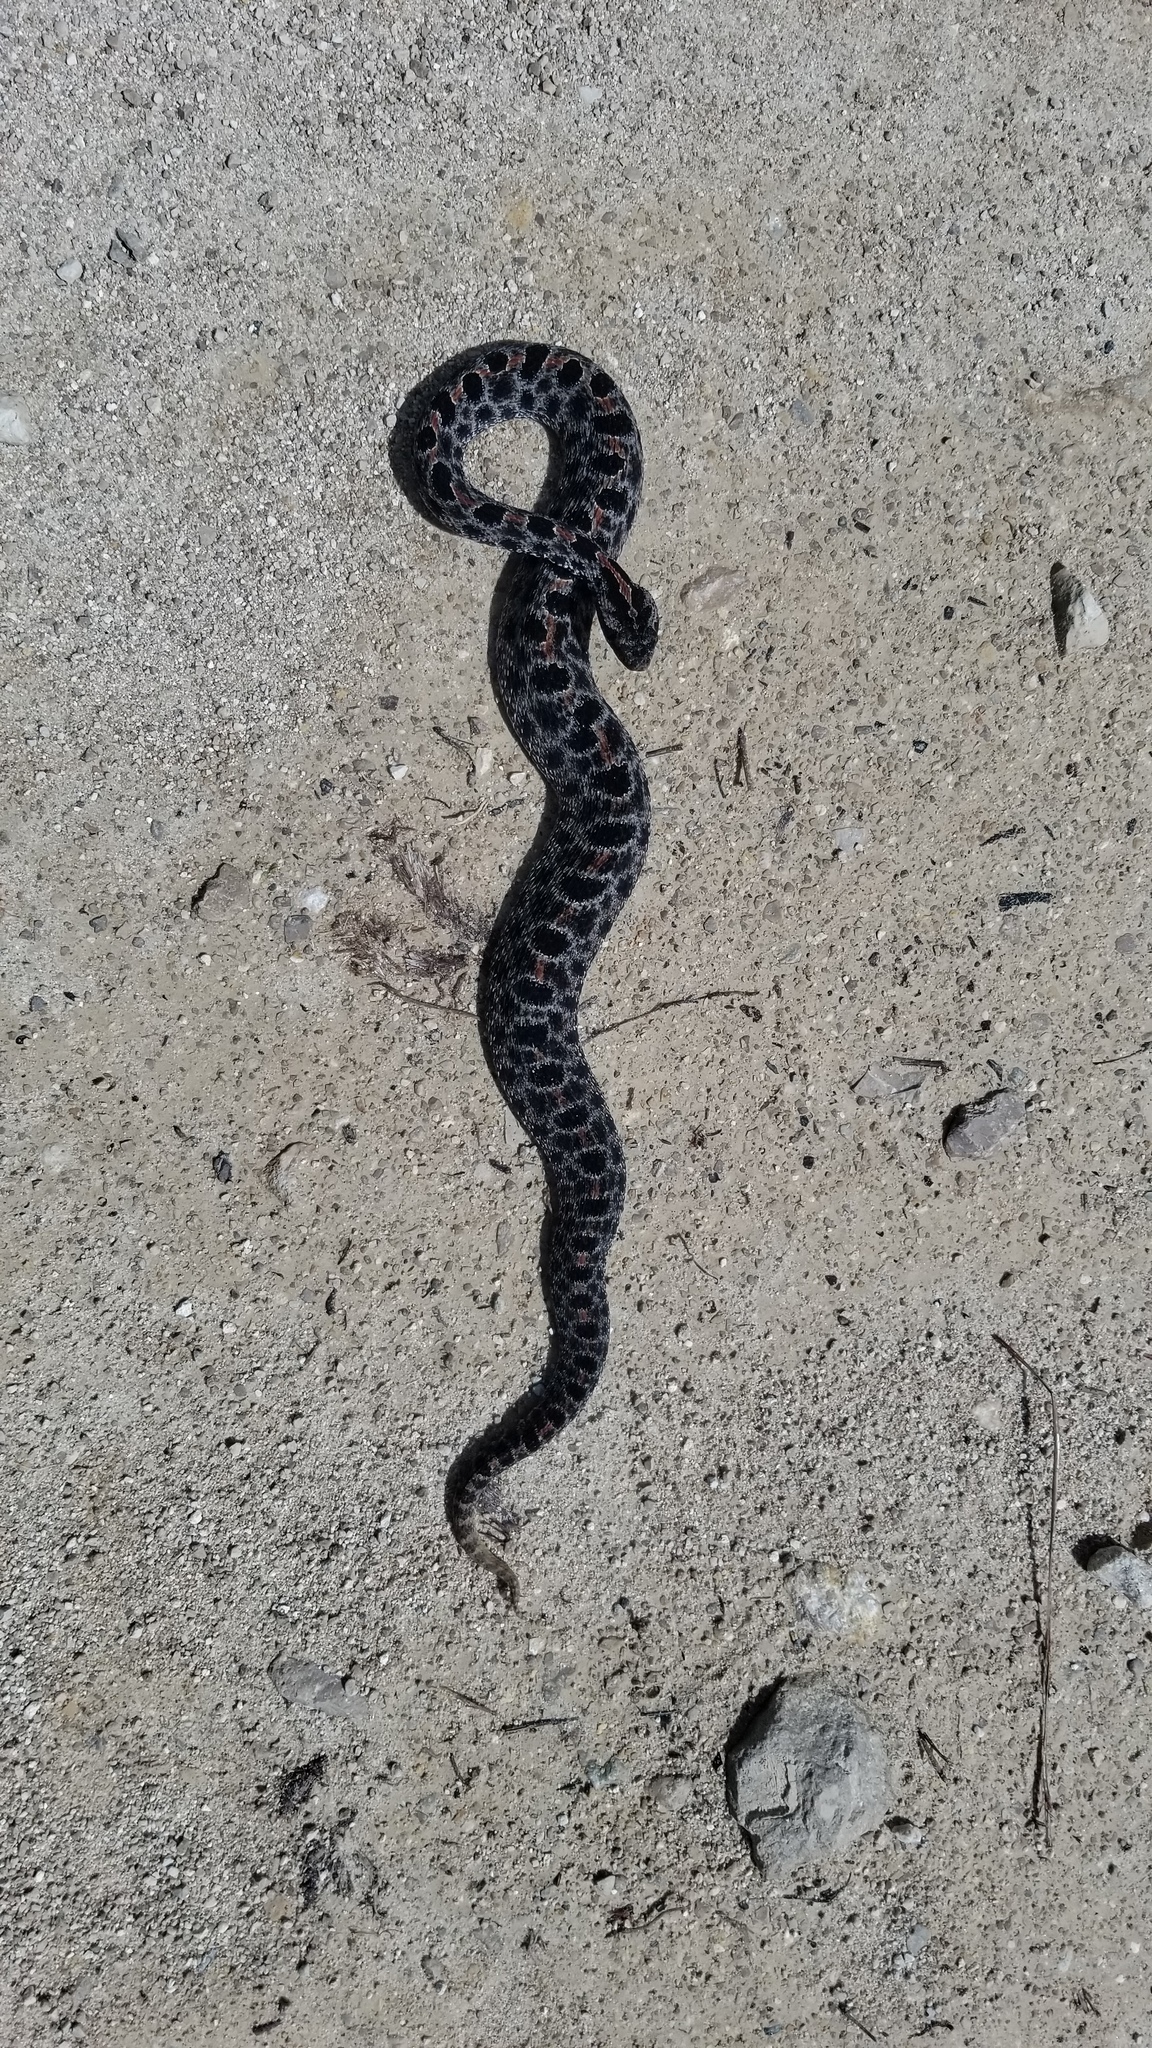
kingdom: Animalia
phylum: Chordata
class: Squamata
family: Viperidae
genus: Sistrurus
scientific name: Sistrurus miliarius
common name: Pygmy rattlesnake
